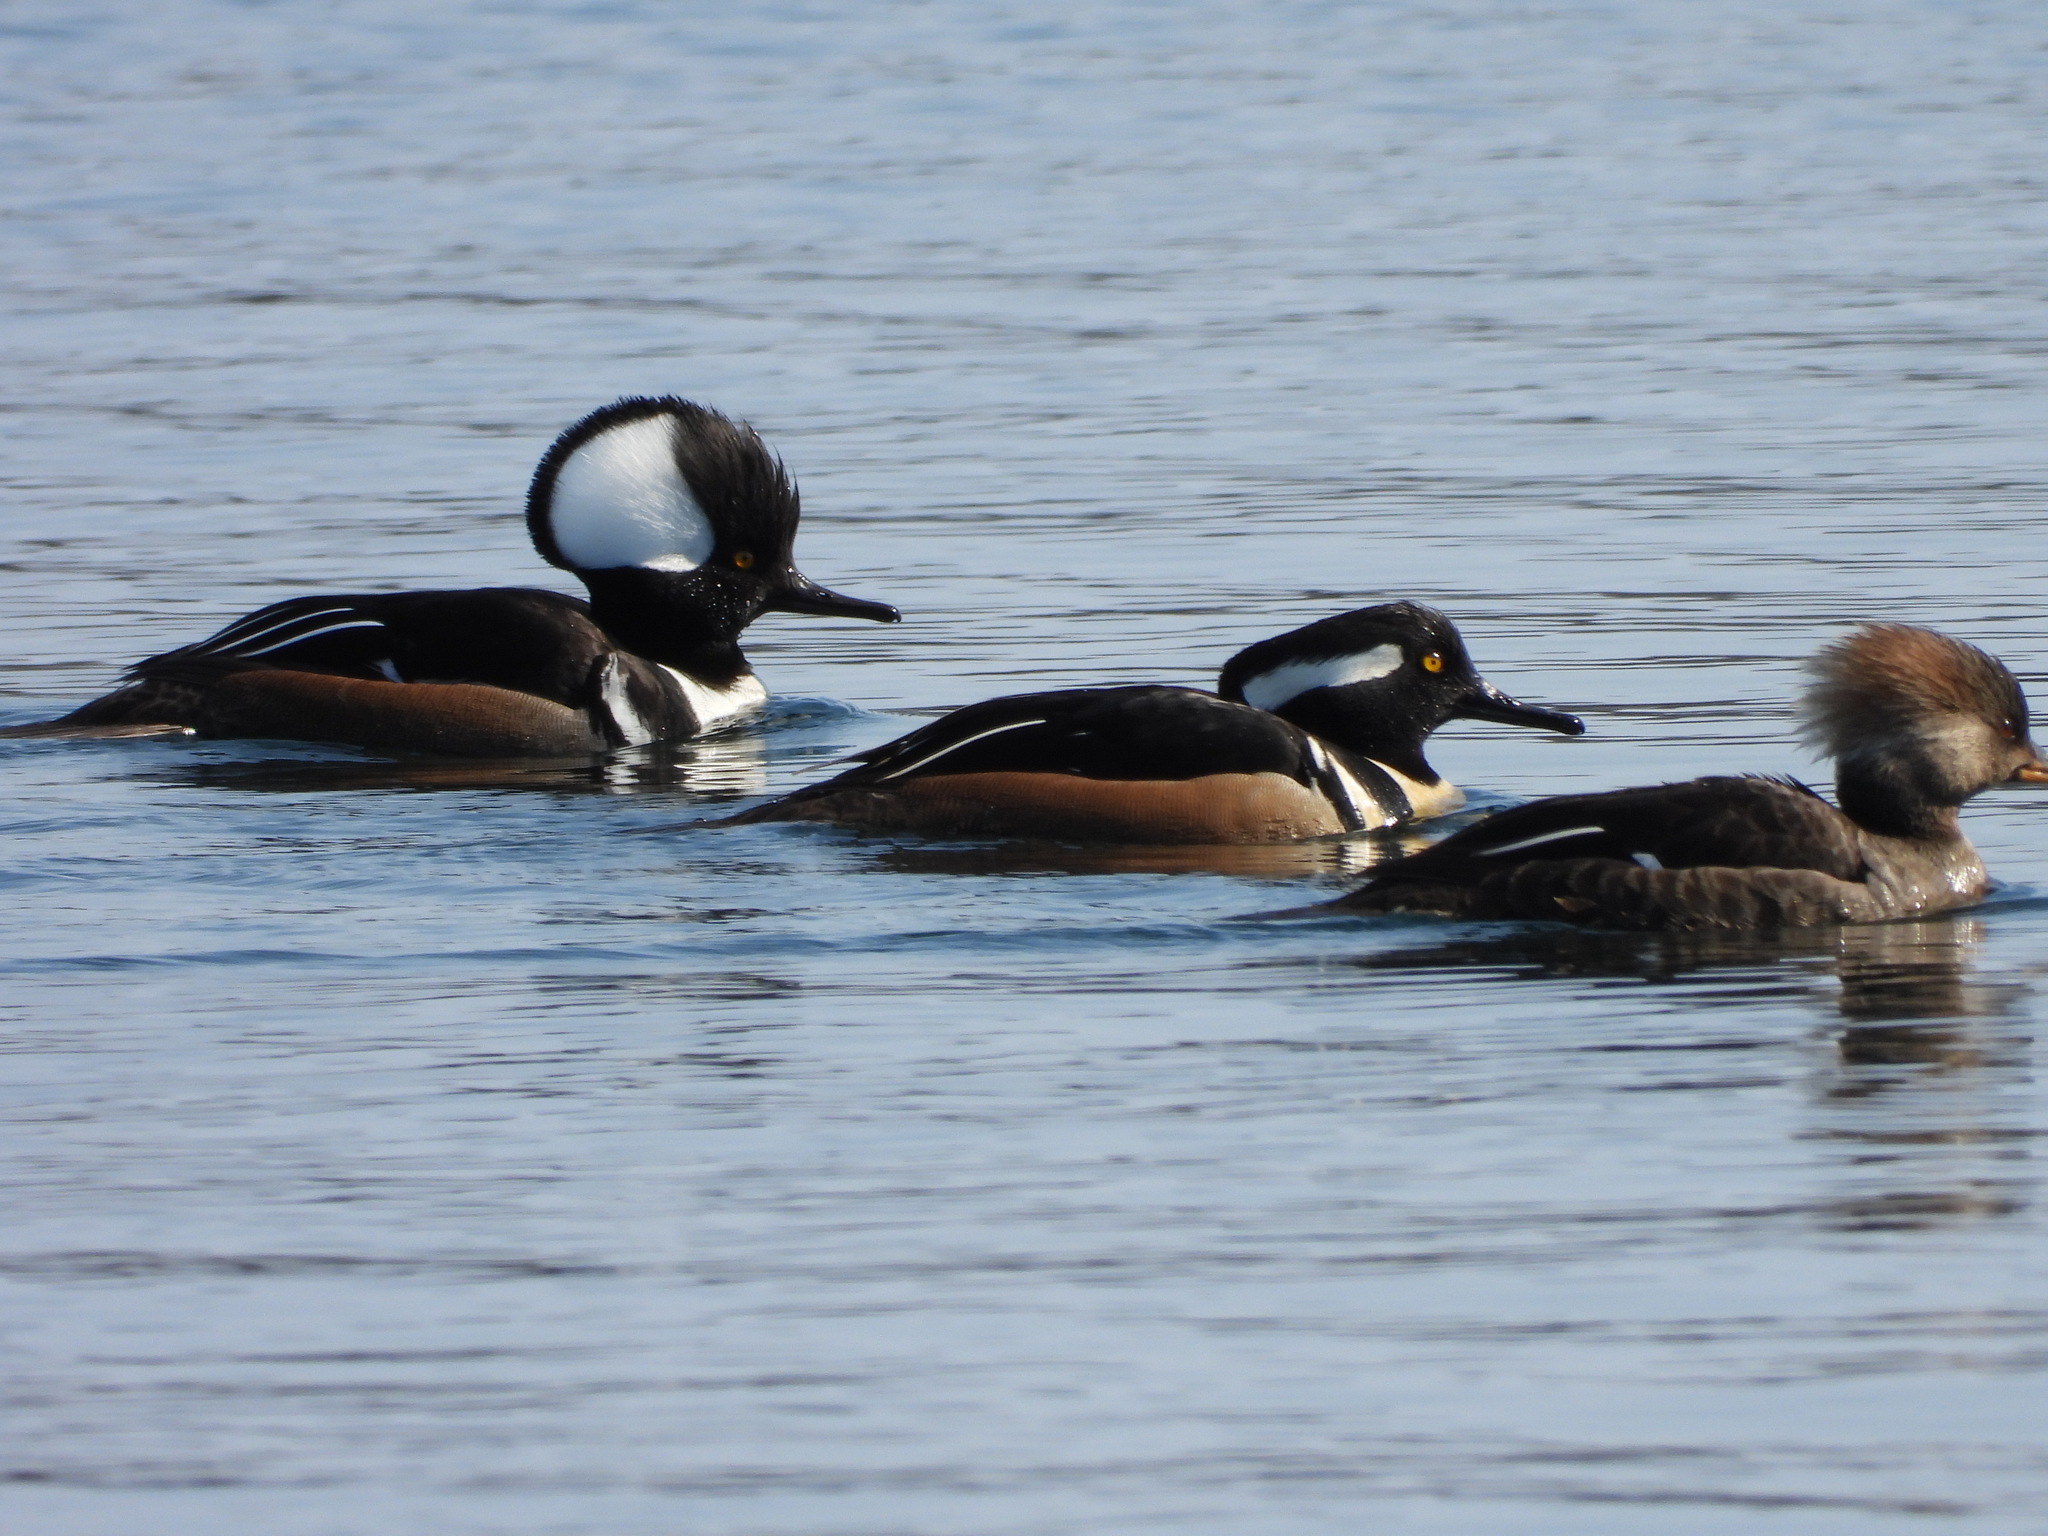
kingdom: Animalia
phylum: Chordata
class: Aves
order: Anseriformes
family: Anatidae
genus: Lophodytes
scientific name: Lophodytes cucullatus
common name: Hooded merganser
